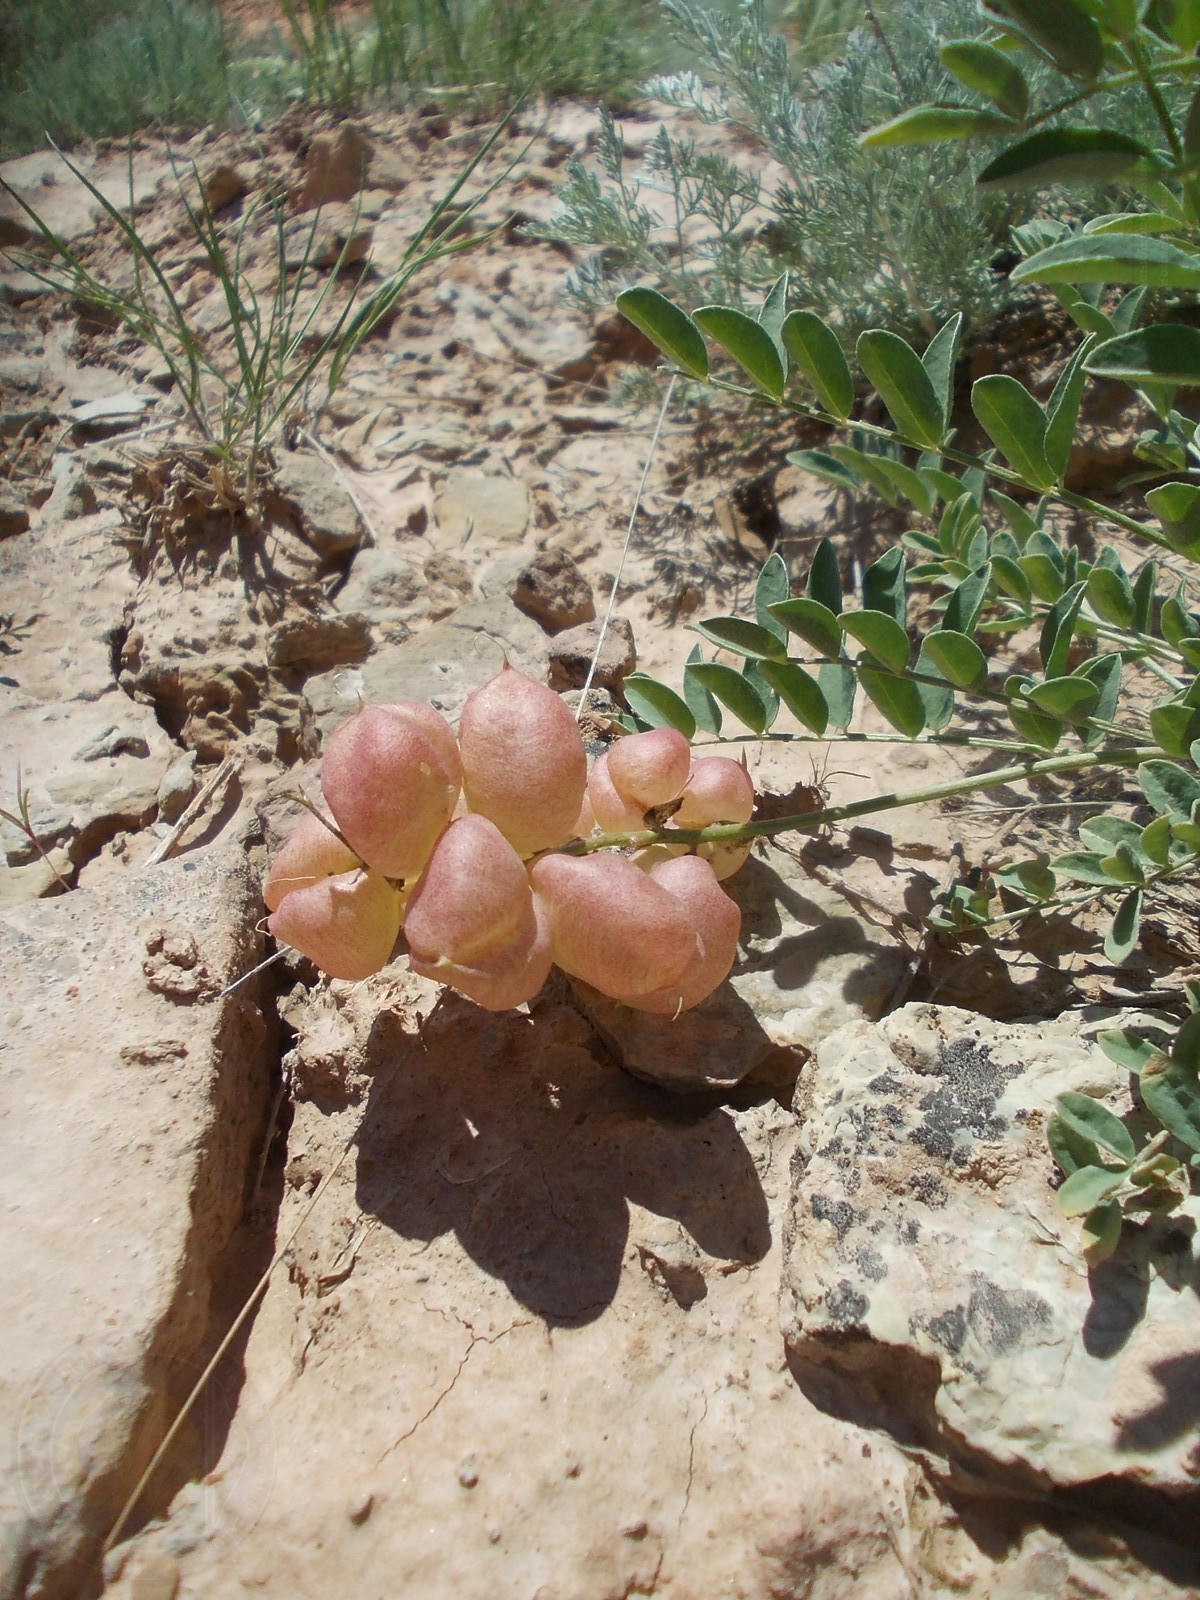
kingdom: Plantae
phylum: Tracheophyta
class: Magnoliopsida
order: Fabales
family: Fabaceae
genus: Astragalus
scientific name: Astragalus physodes
